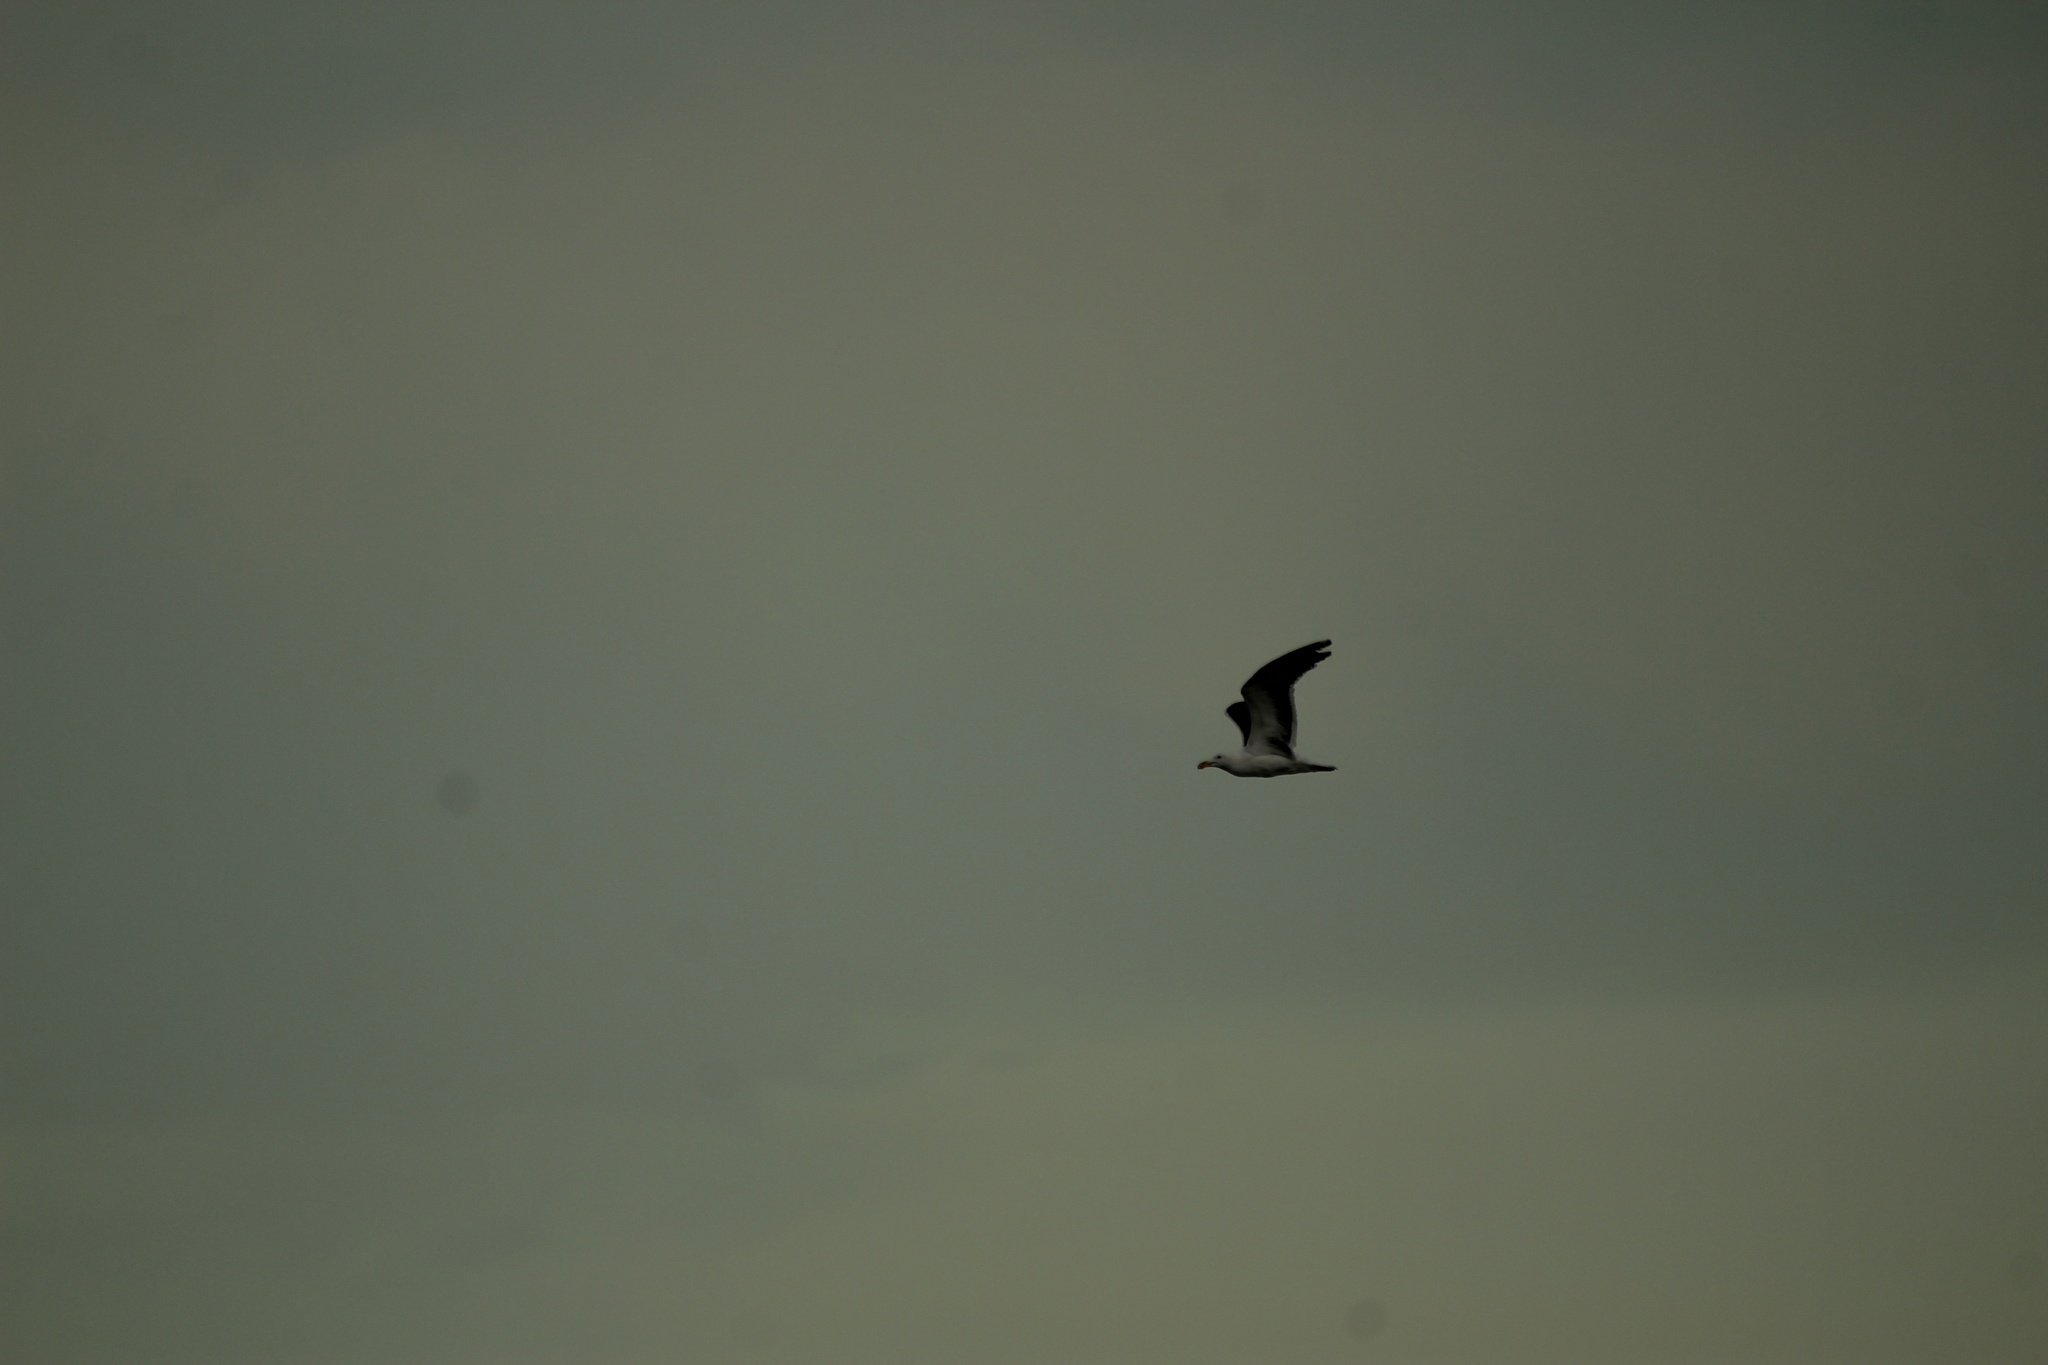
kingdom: Animalia
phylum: Chordata
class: Aves
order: Charadriiformes
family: Laridae
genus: Larus
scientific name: Larus livens
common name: Yellow-footed gull
